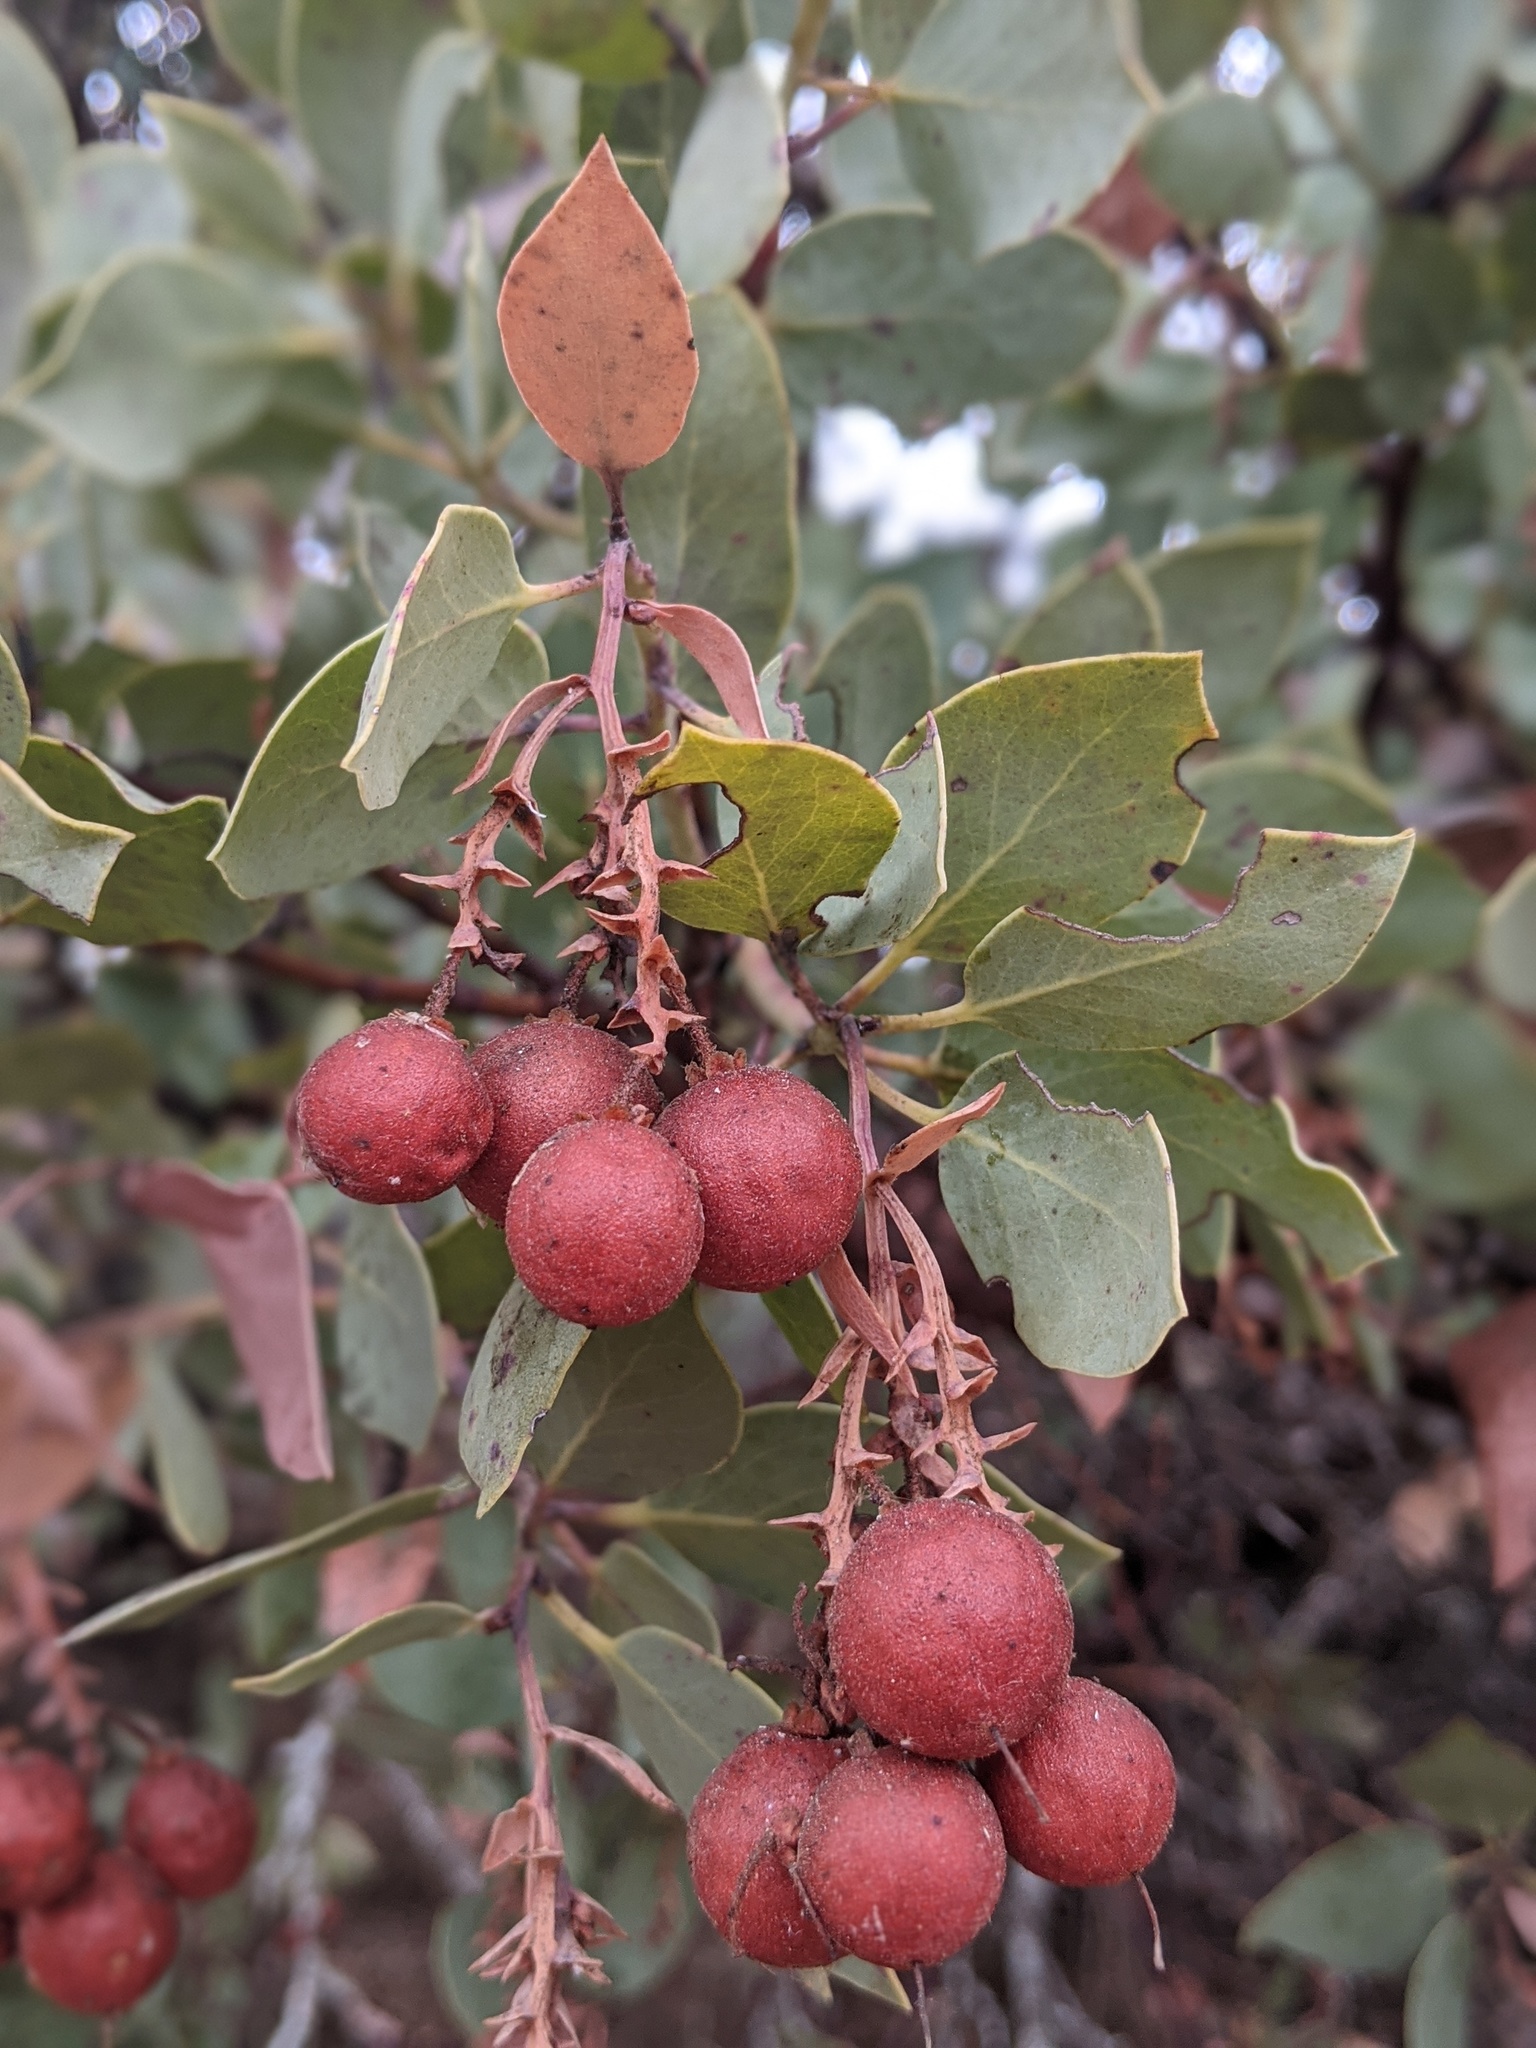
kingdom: Plantae
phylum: Tracheophyta
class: Magnoliopsida
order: Ericales
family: Ericaceae
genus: Arctostaphylos
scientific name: Arctostaphylos glauca
